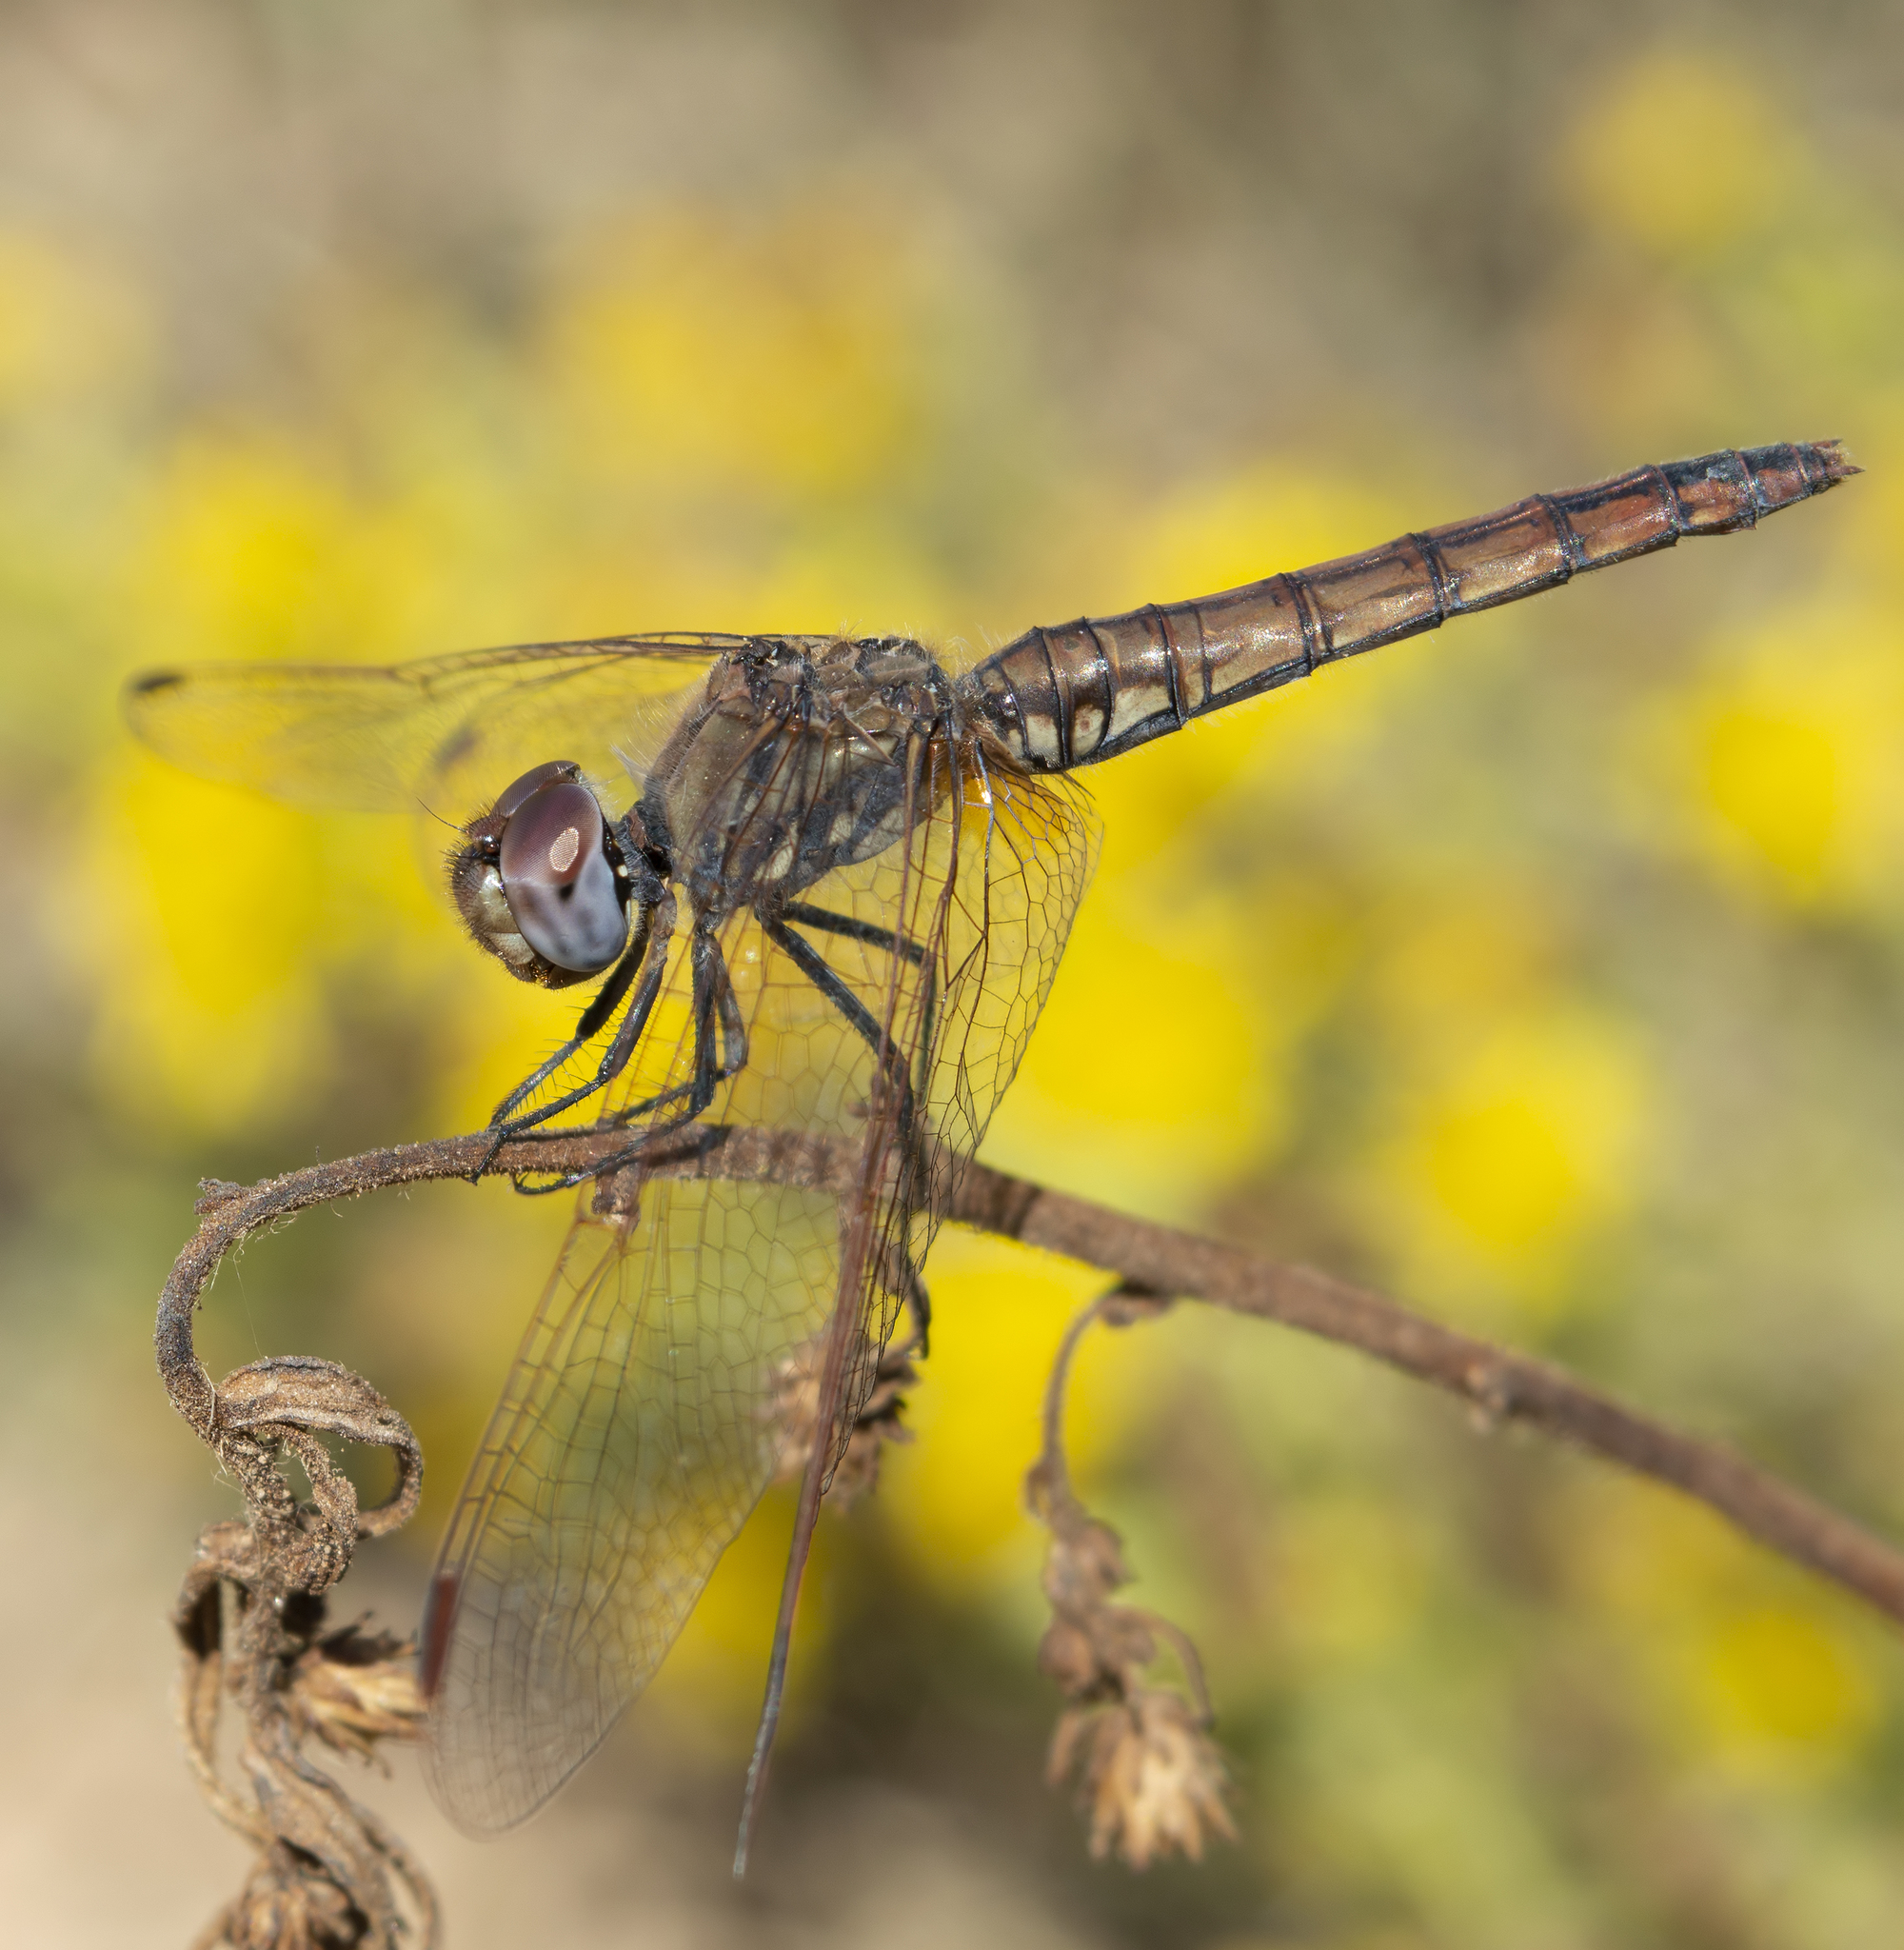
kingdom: Animalia
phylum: Arthropoda
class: Insecta
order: Odonata
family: Libellulidae
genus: Trithemis
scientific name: Trithemis annulata
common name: Violet dropwing
